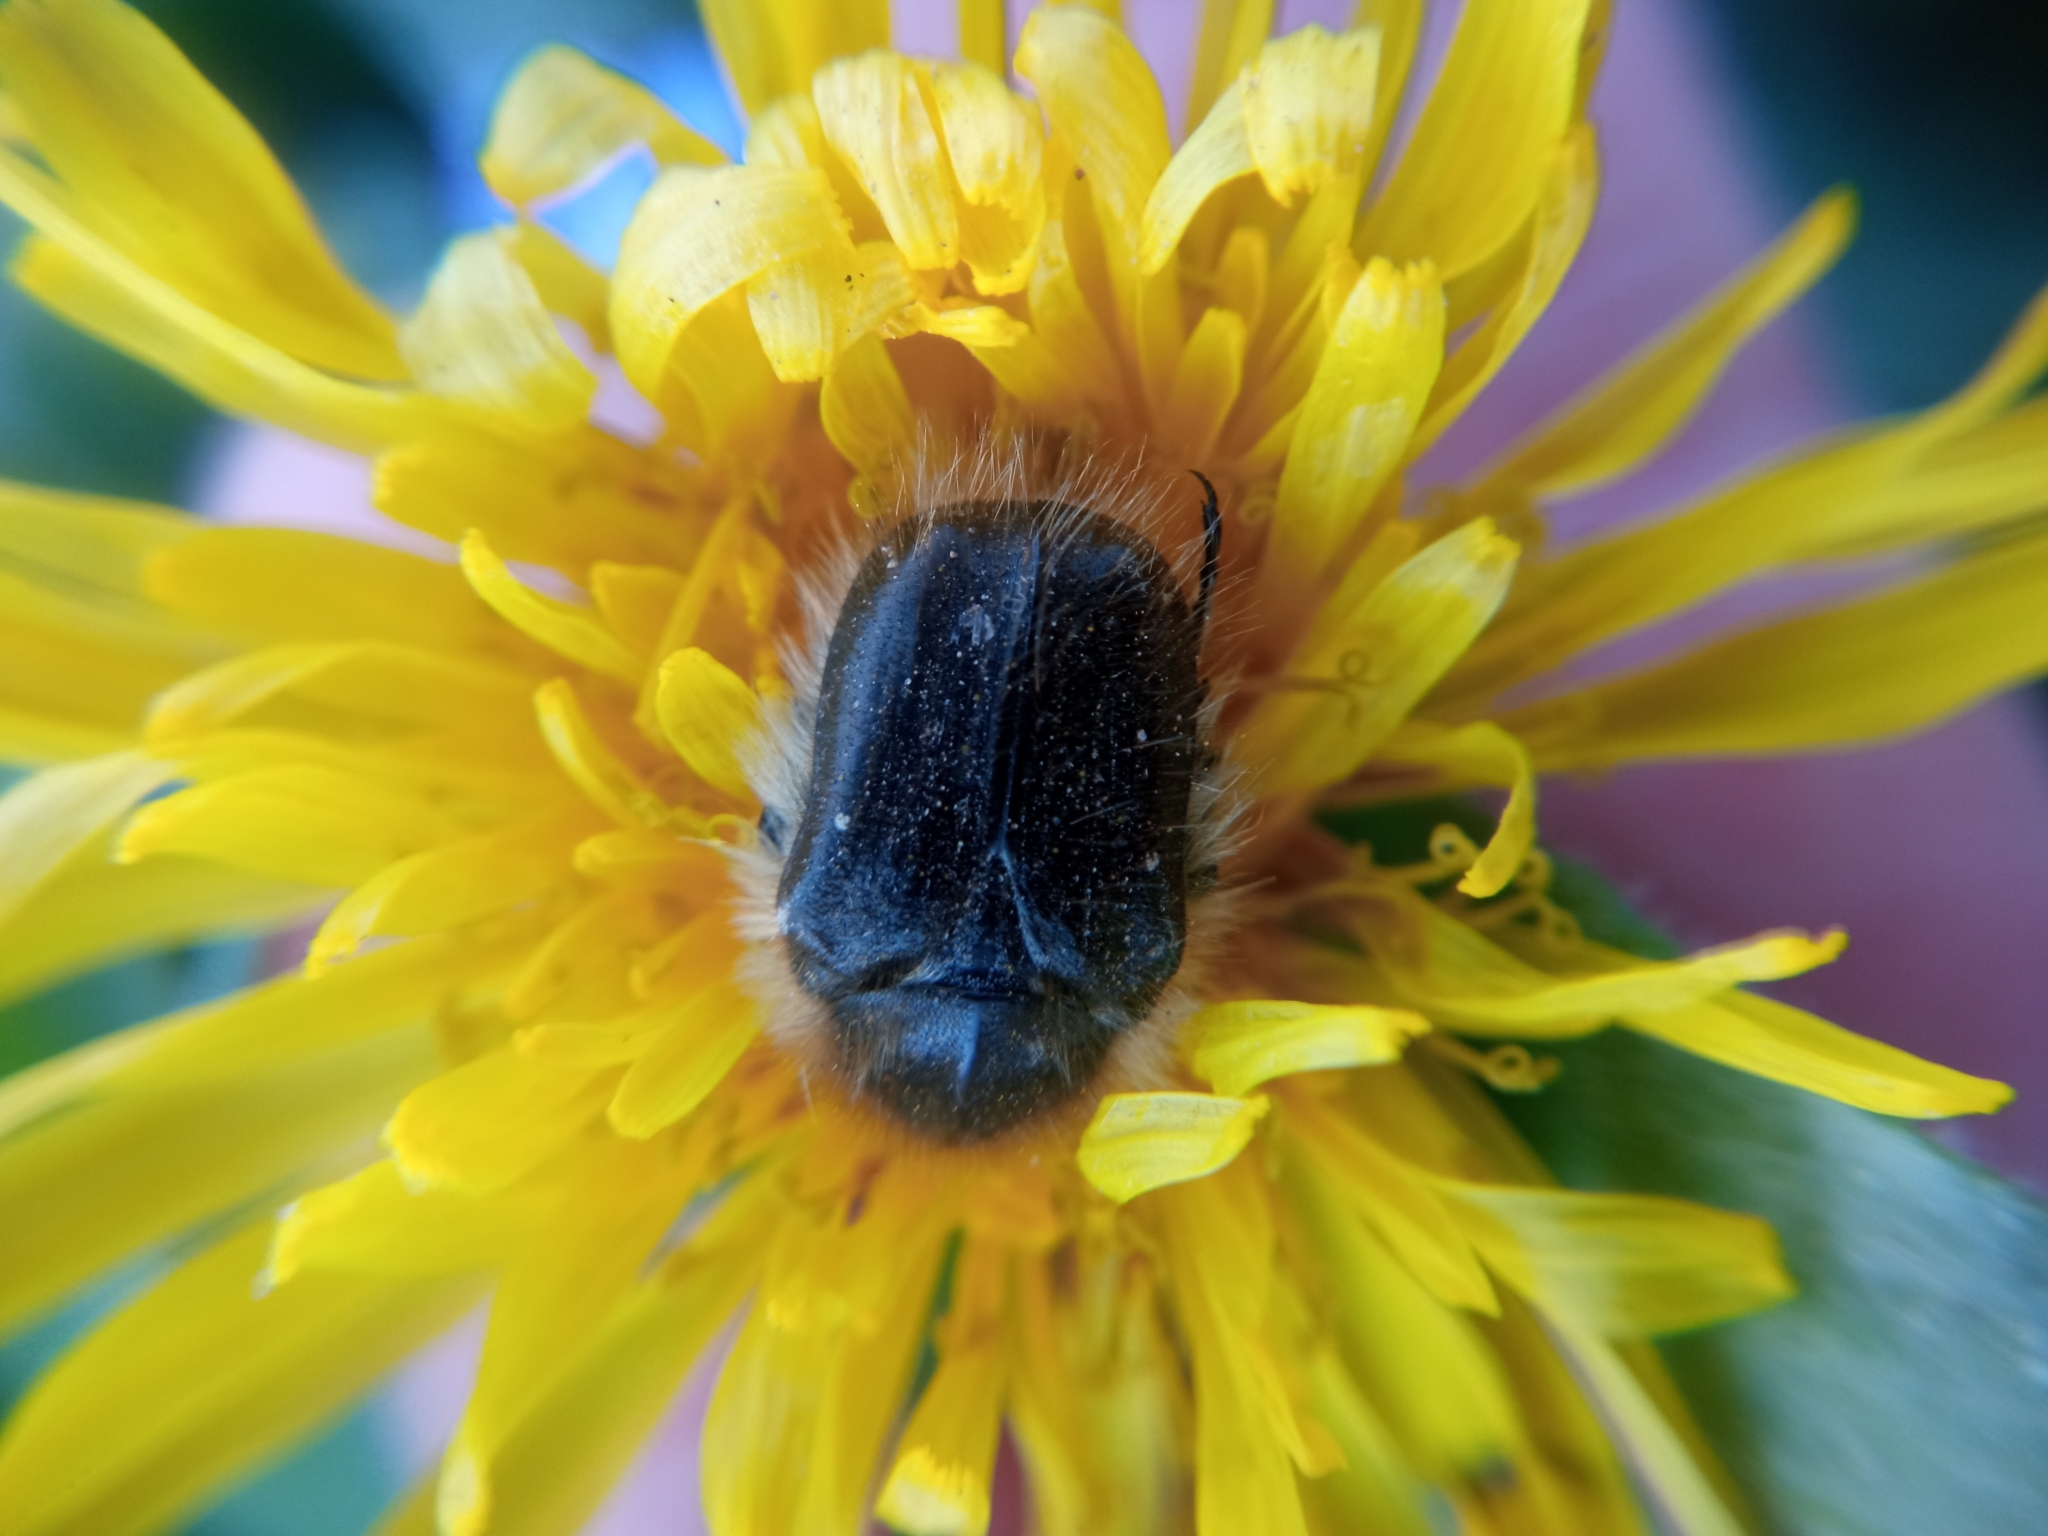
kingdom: Animalia
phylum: Arthropoda
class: Insecta
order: Coleoptera
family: Scarabaeidae
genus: Tropinota
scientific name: Tropinota hirta
